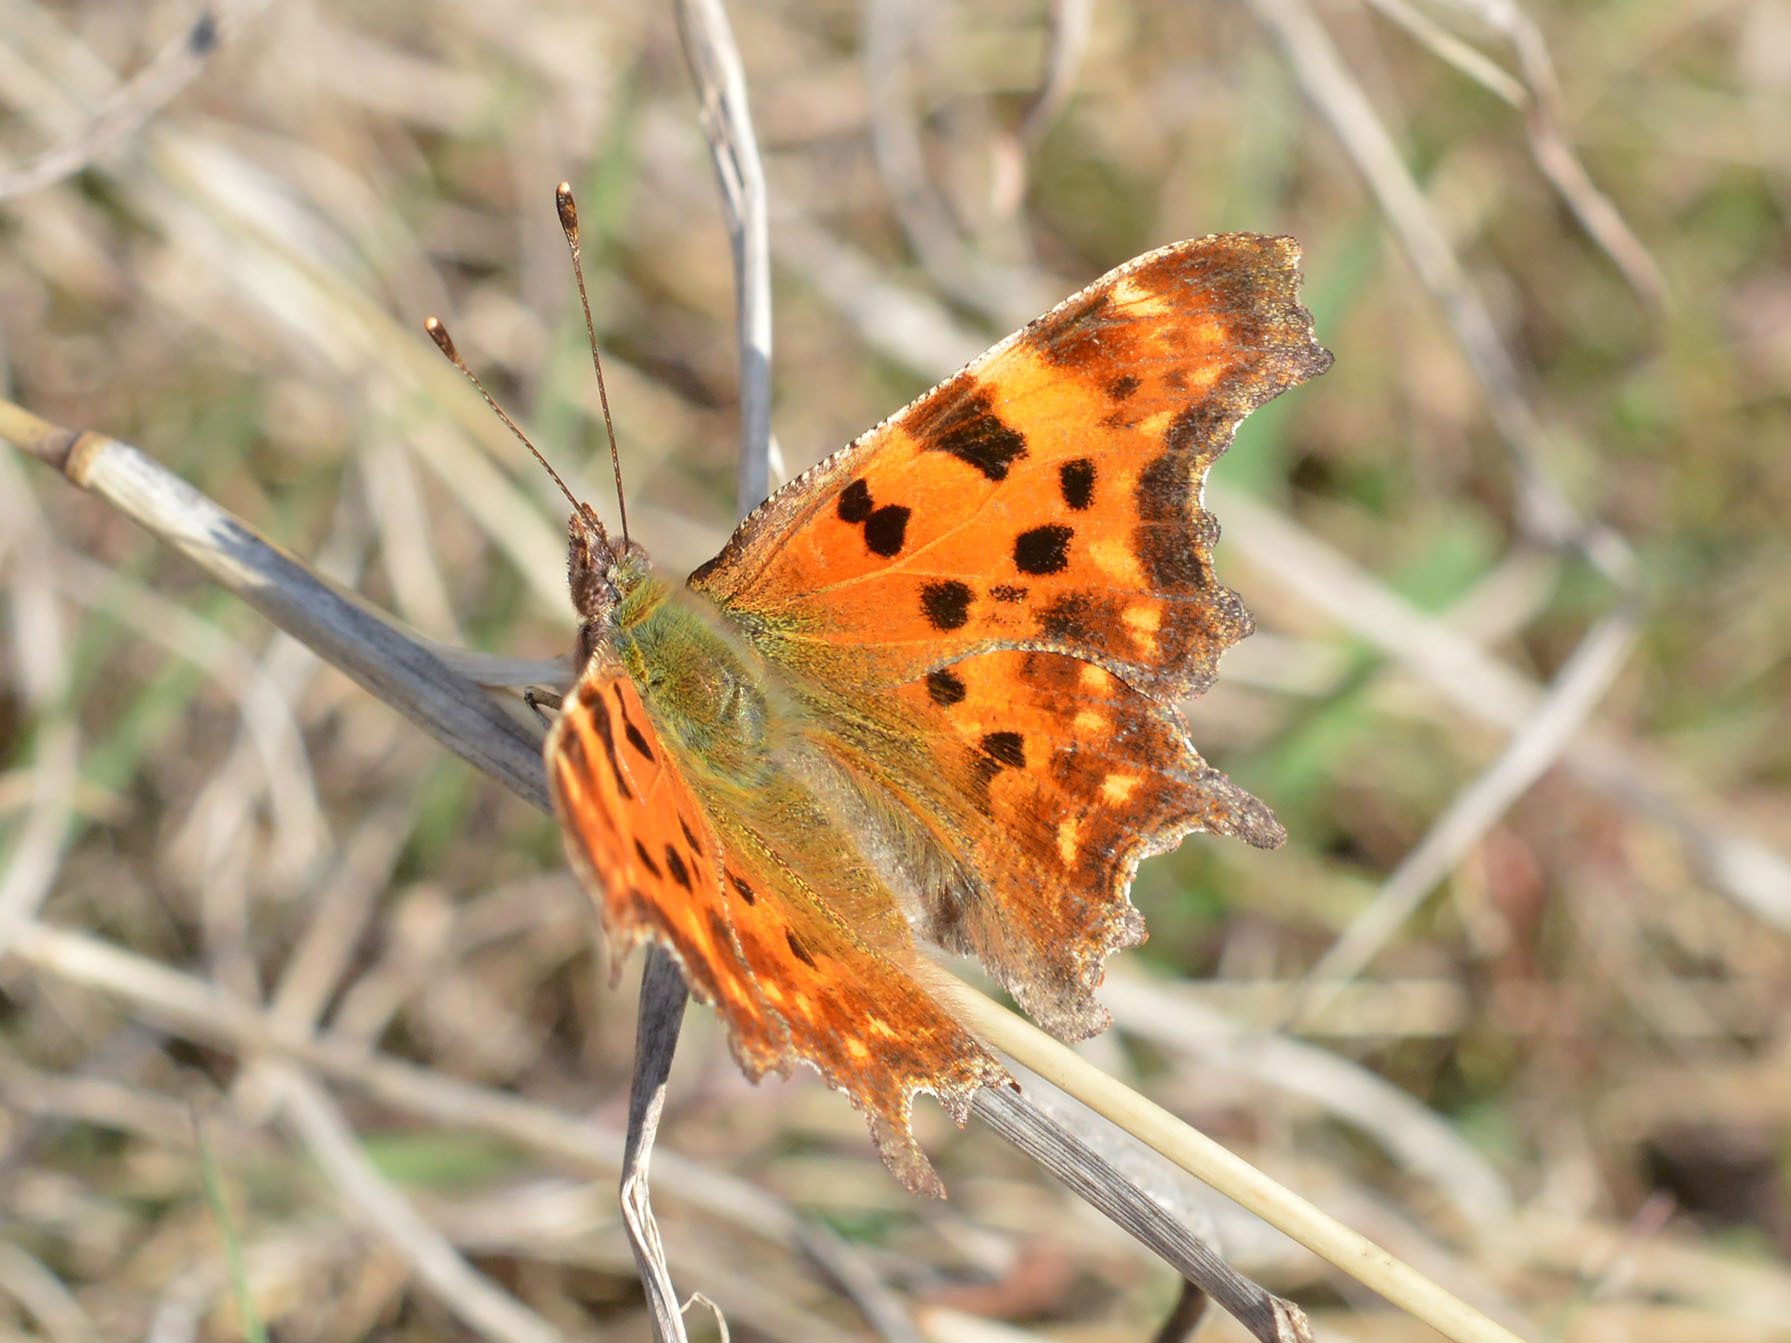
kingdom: Animalia
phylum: Arthropoda
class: Insecta
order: Lepidoptera
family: Nymphalidae
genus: Polygonia
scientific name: Polygonia c-album
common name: Comma
